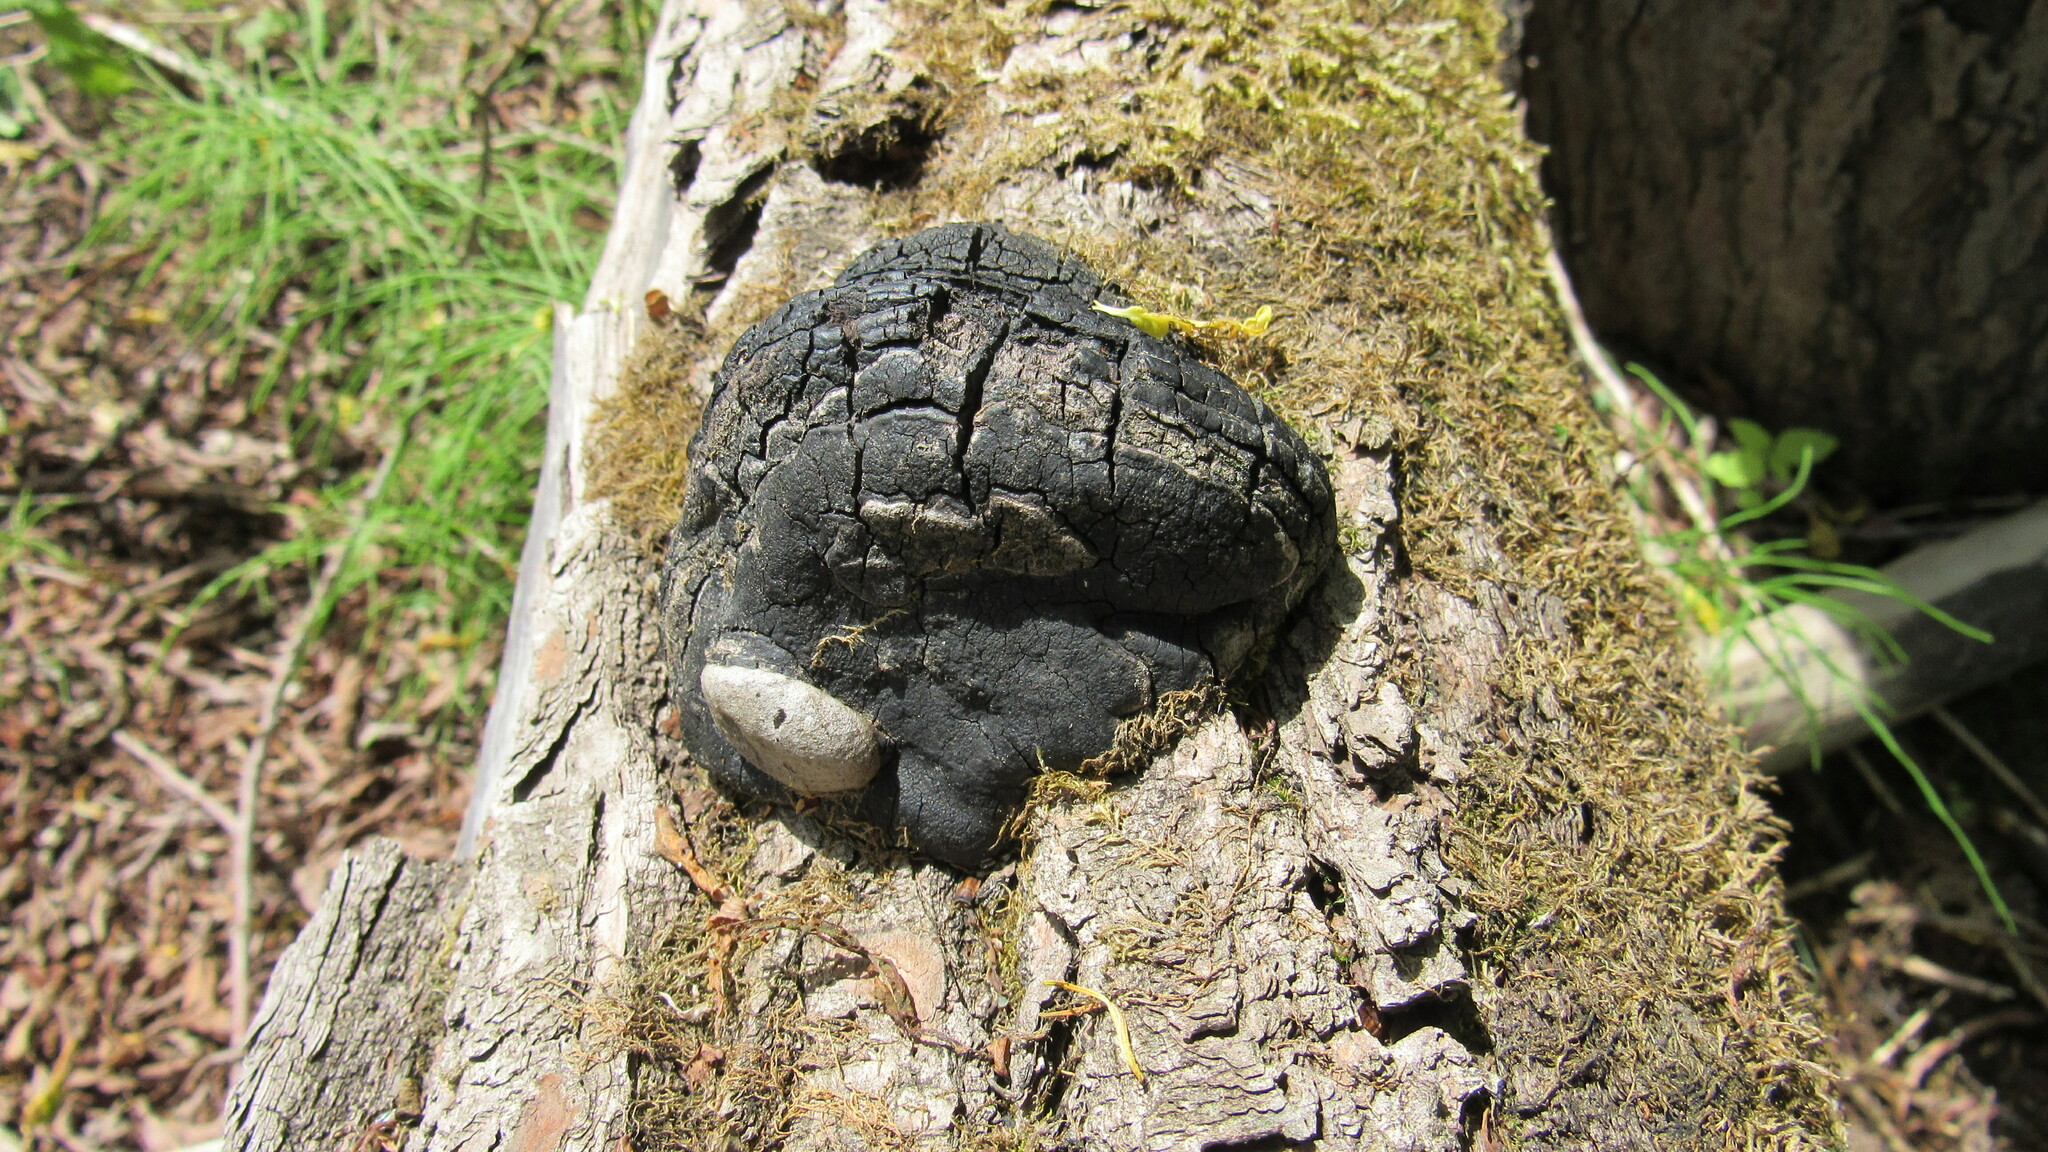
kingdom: Fungi
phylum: Basidiomycota
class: Agaricomycetes
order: Hymenochaetales
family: Hymenochaetaceae
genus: Phellinus
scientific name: Phellinus igniarius
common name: Willow bracket
